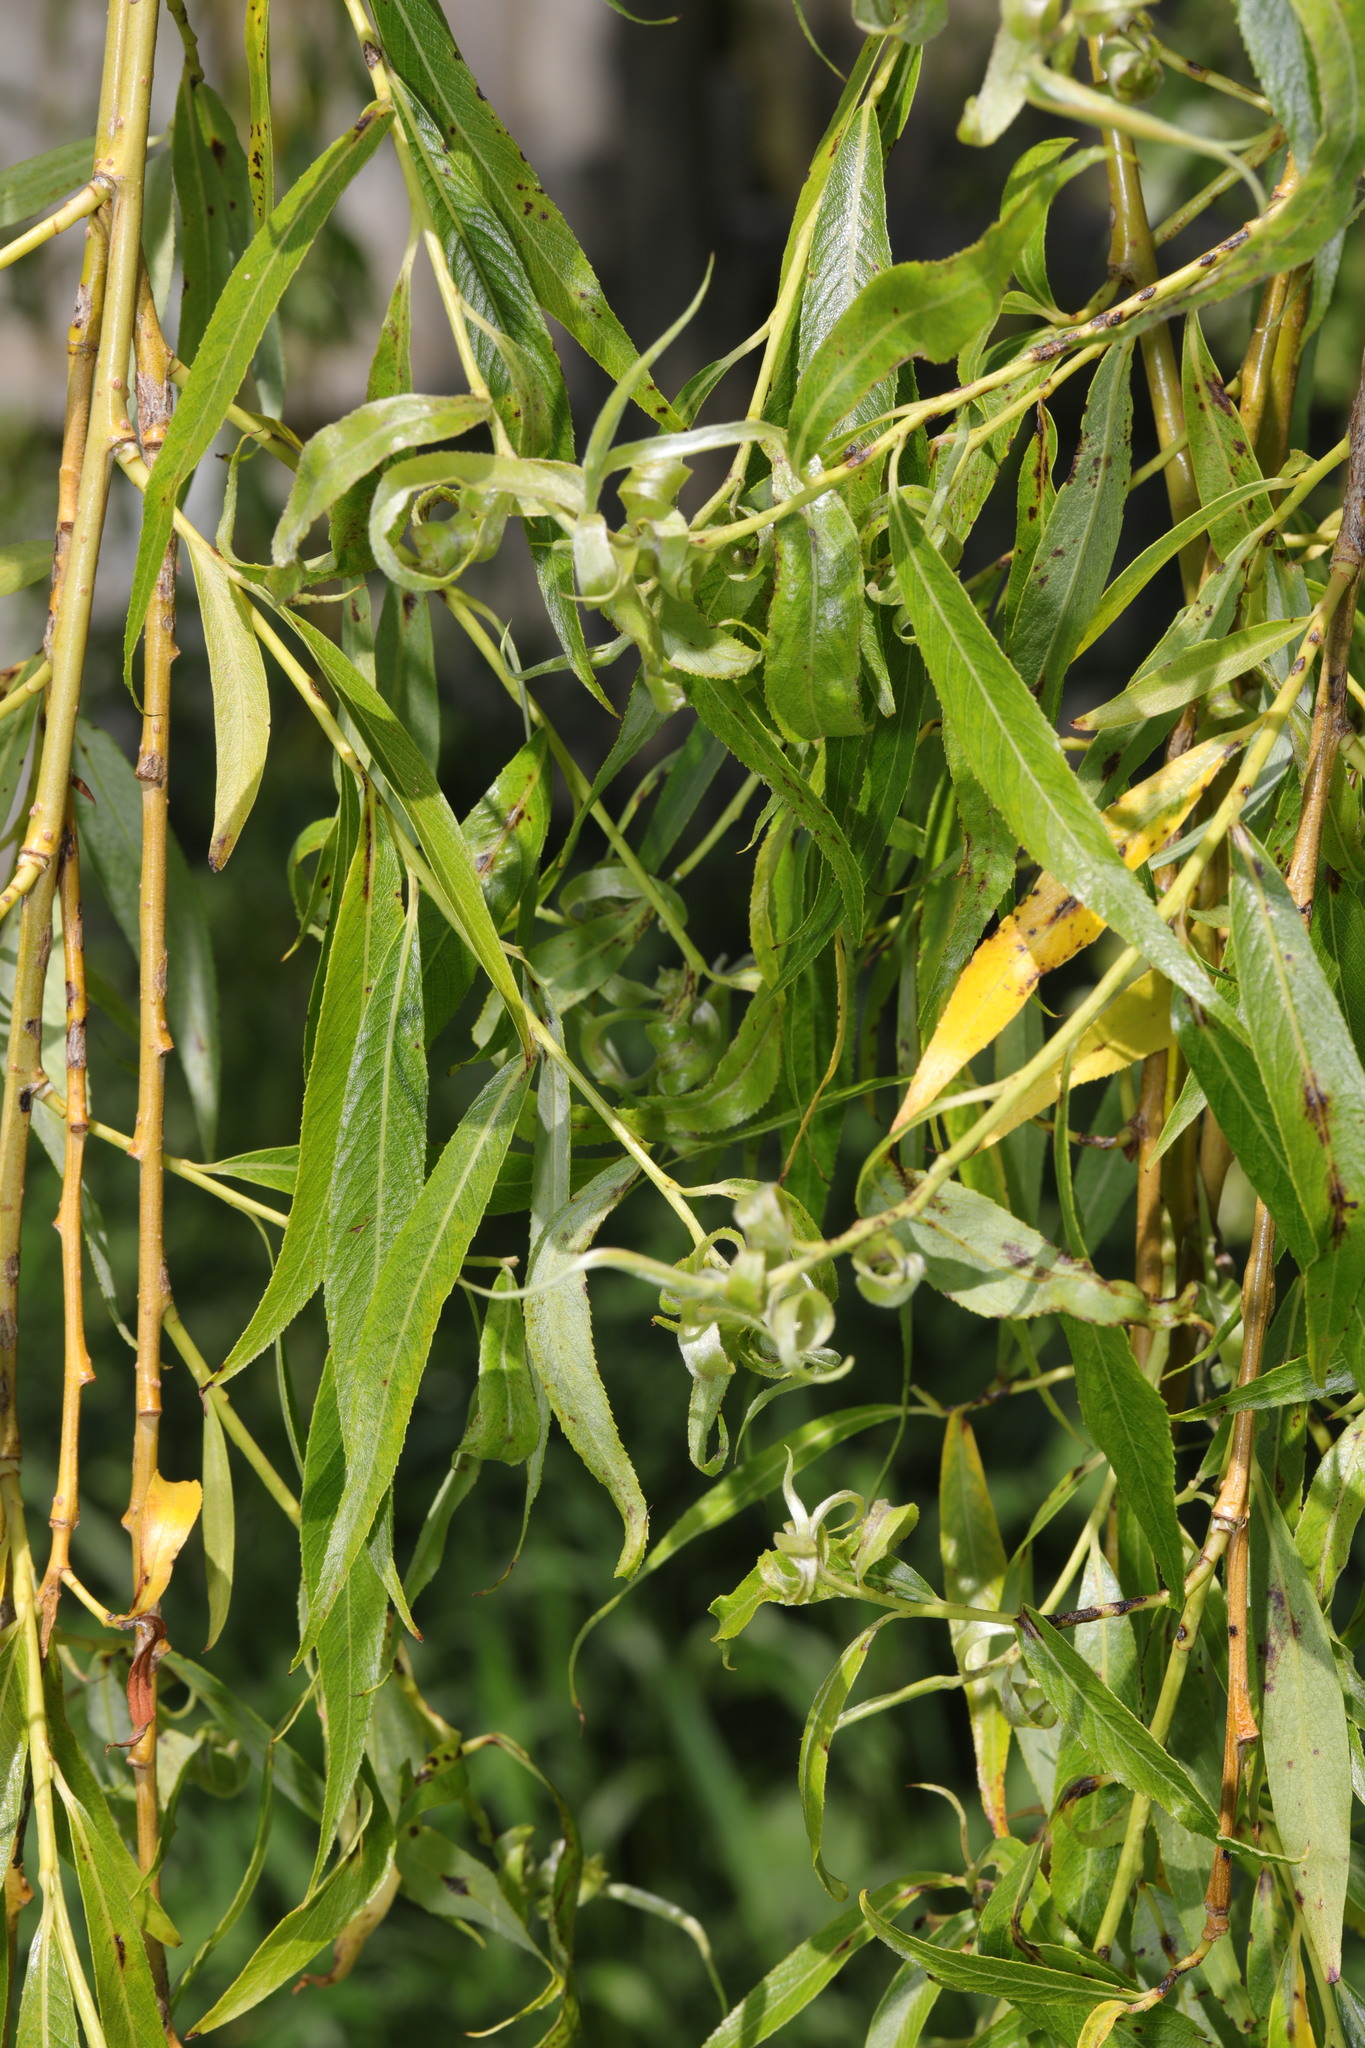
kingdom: Plantae
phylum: Tracheophyta
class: Magnoliopsida
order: Malpighiales
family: Salicaceae
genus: Salix
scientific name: Salix pendulina
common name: Wisconsin weeping willow
